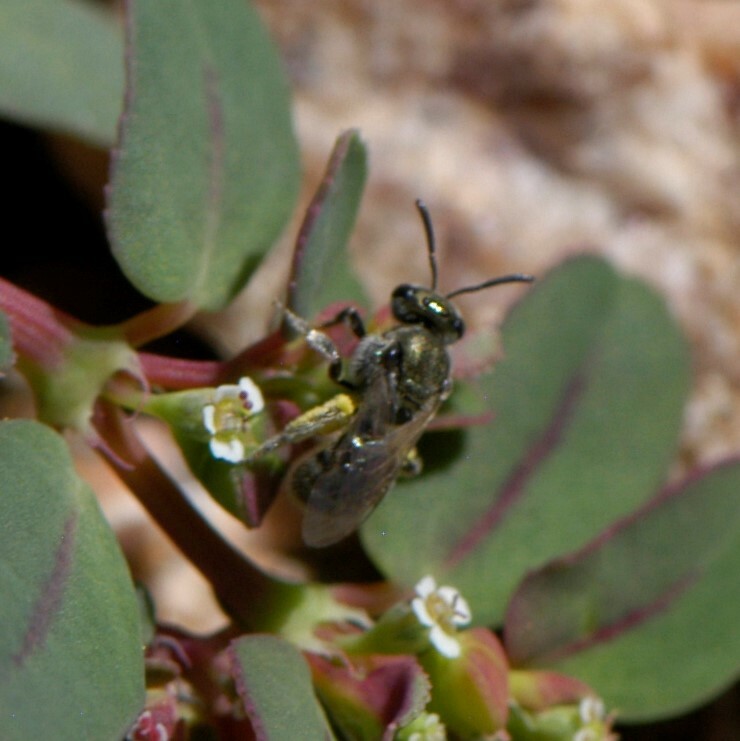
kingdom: Animalia
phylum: Arthropoda
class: Insecta
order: Hymenoptera
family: Halictidae
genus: Dialictus
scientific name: Dialictus
